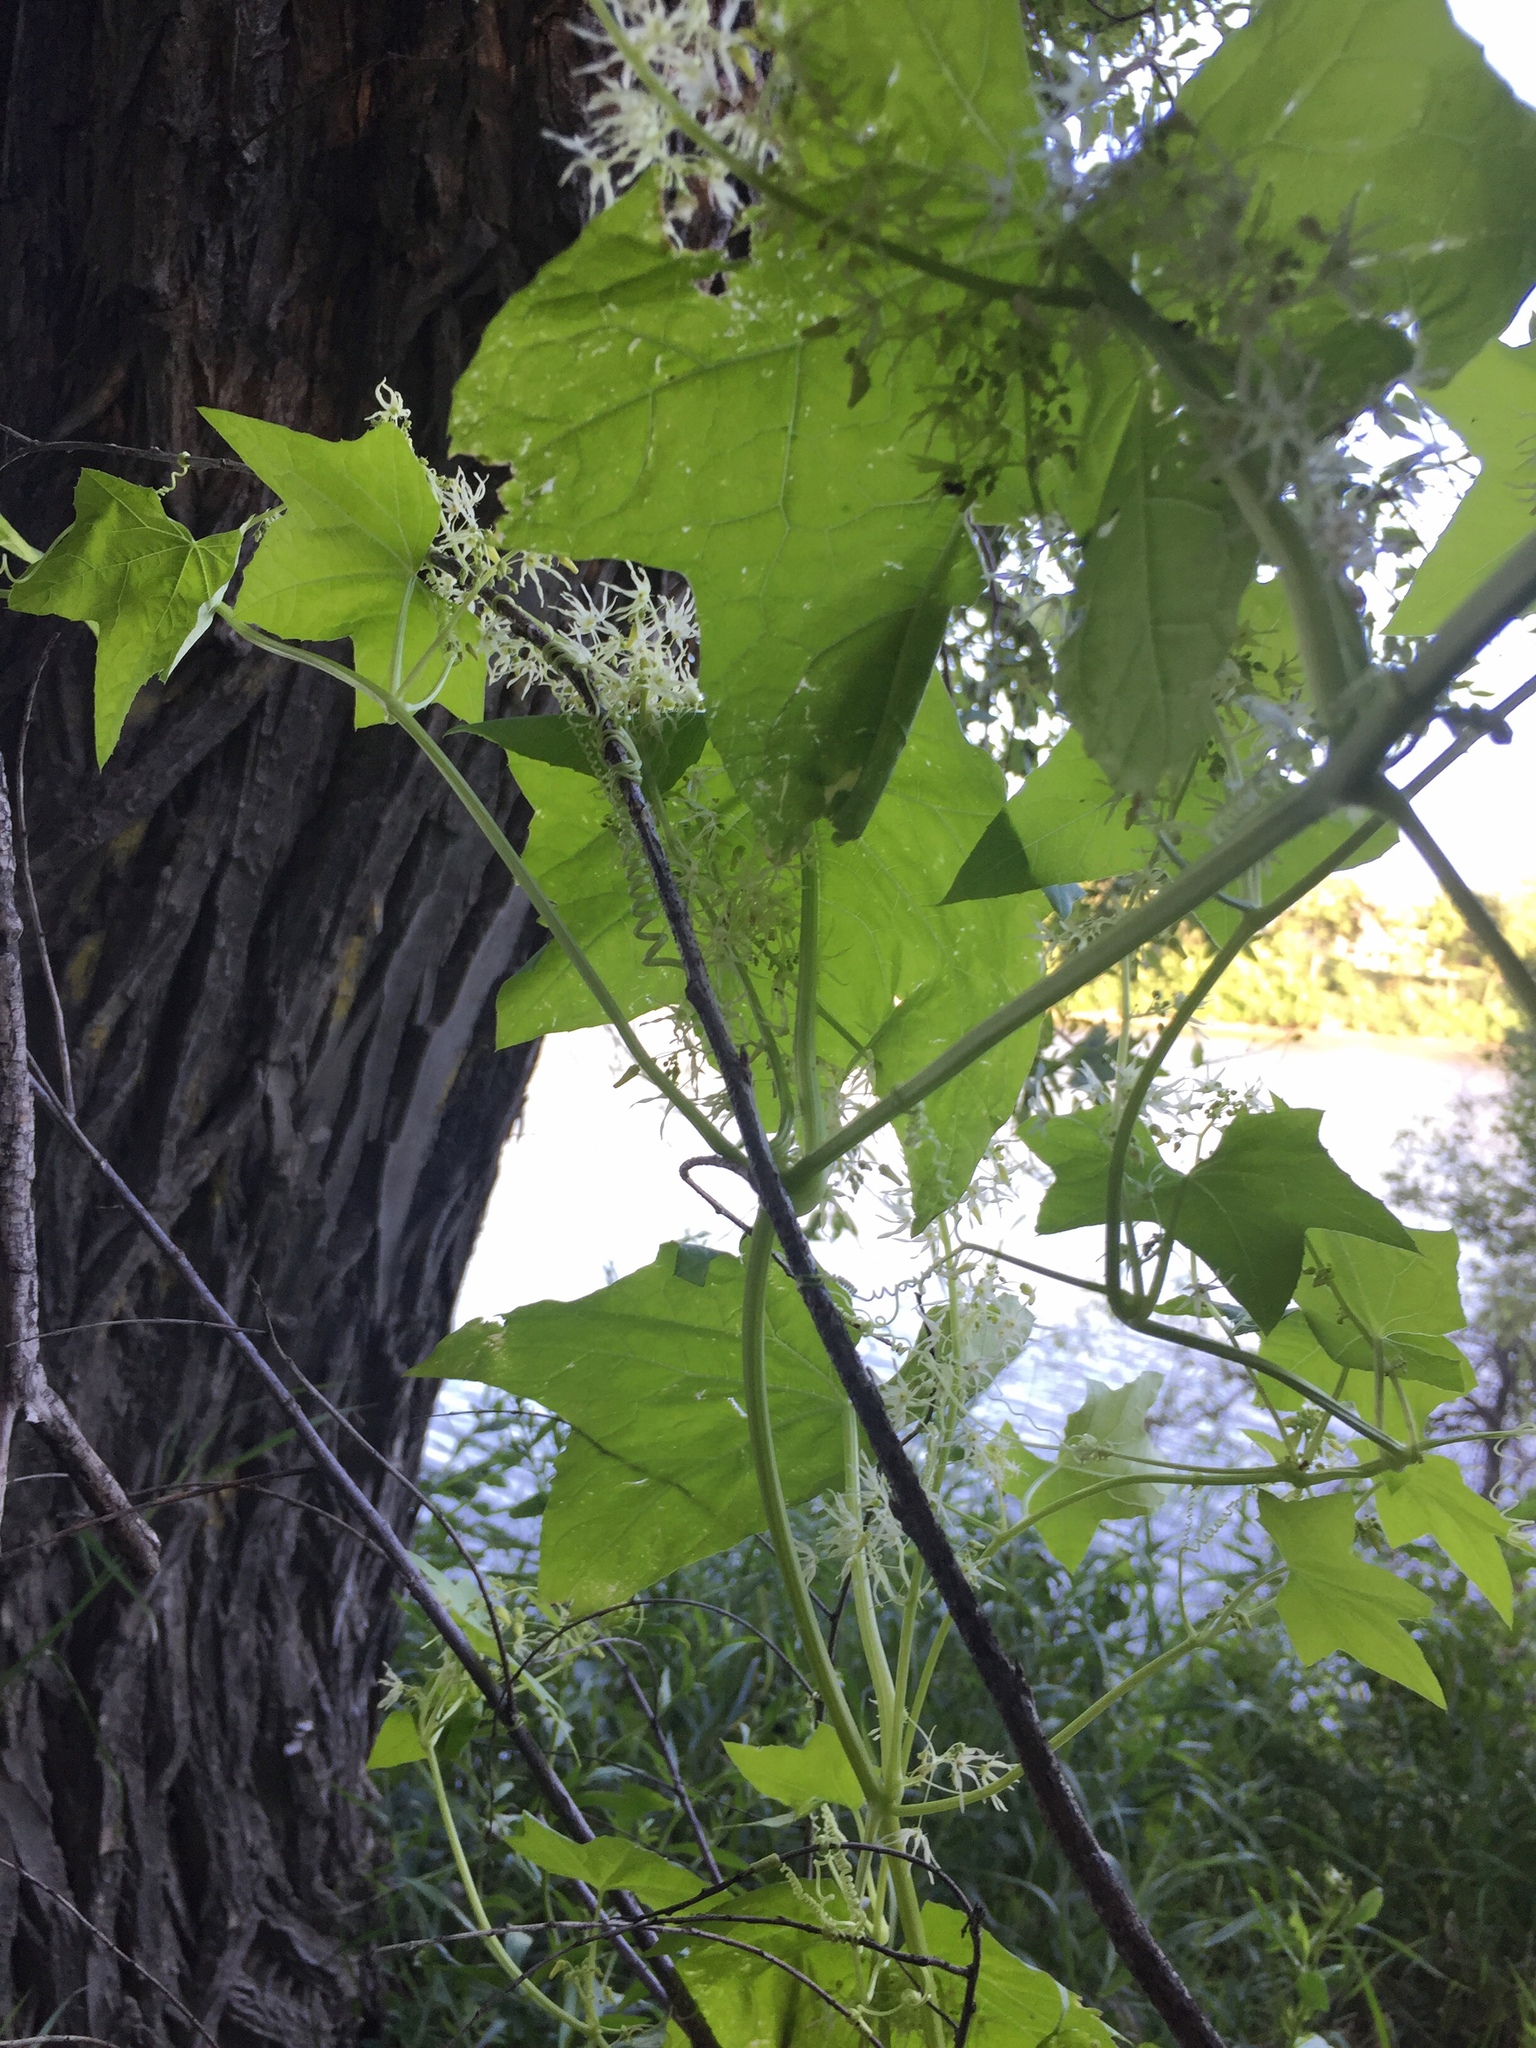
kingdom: Plantae
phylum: Tracheophyta
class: Magnoliopsida
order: Cucurbitales
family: Cucurbitaceae
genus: Echinocystis
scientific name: Echinocystis lobata
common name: Wild cucumber
